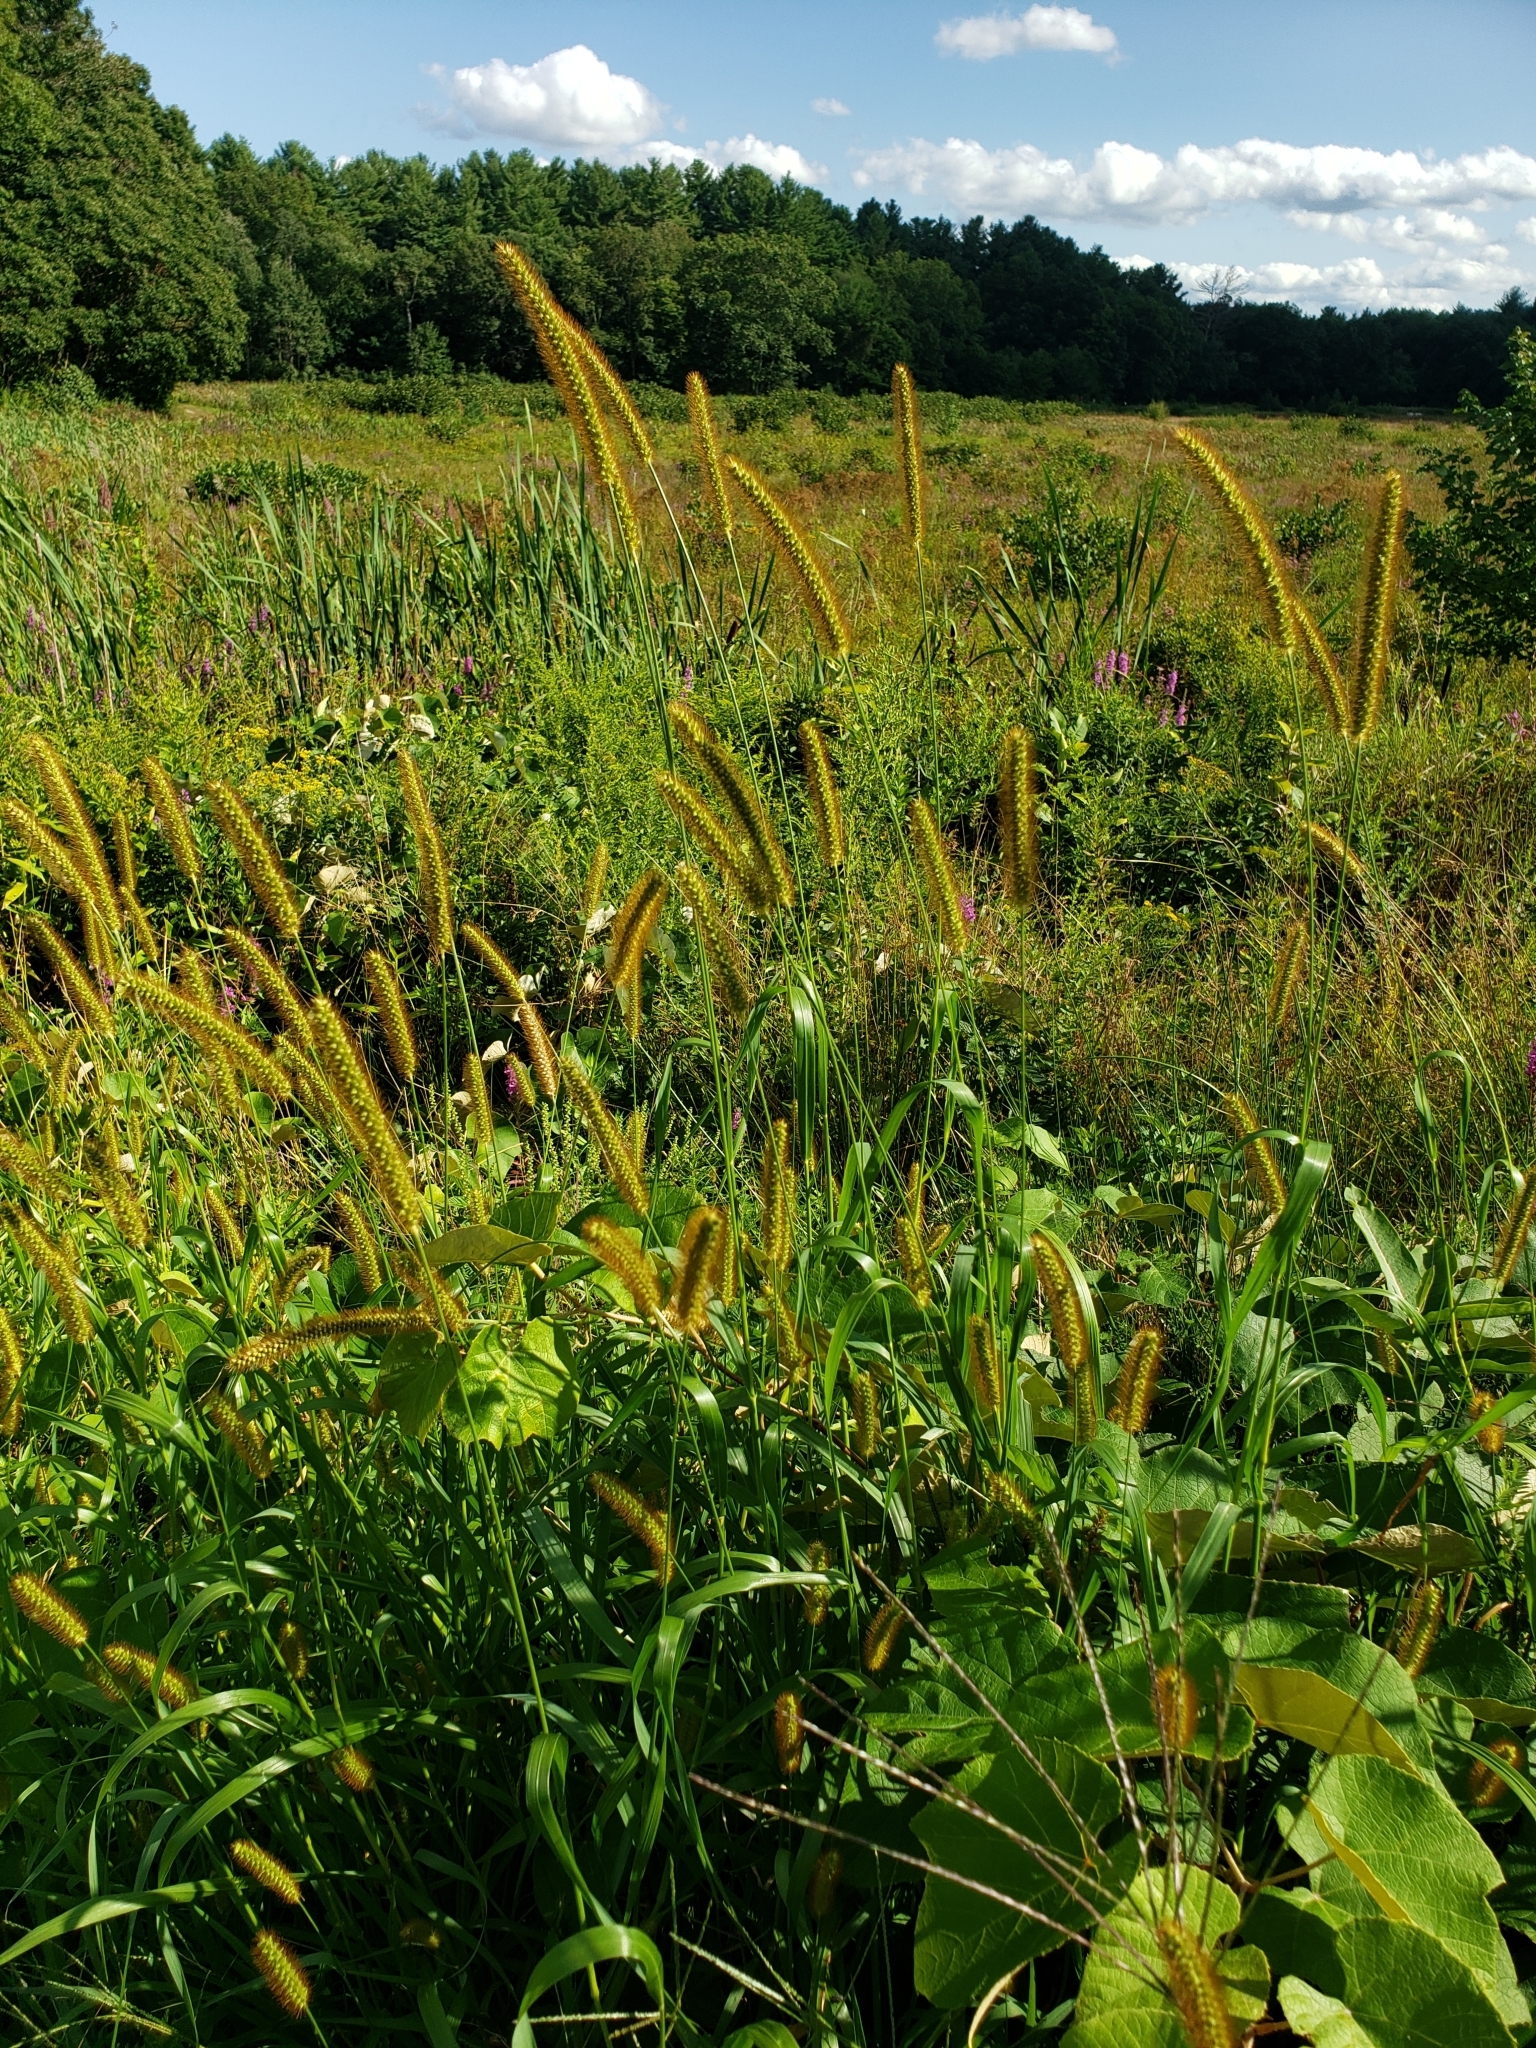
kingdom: Plantae
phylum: Tracheophyta
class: Liliopsida
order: Poales
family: Poaceae
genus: Setaria
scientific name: Setaria pumila
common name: Yellow bristle-grass
